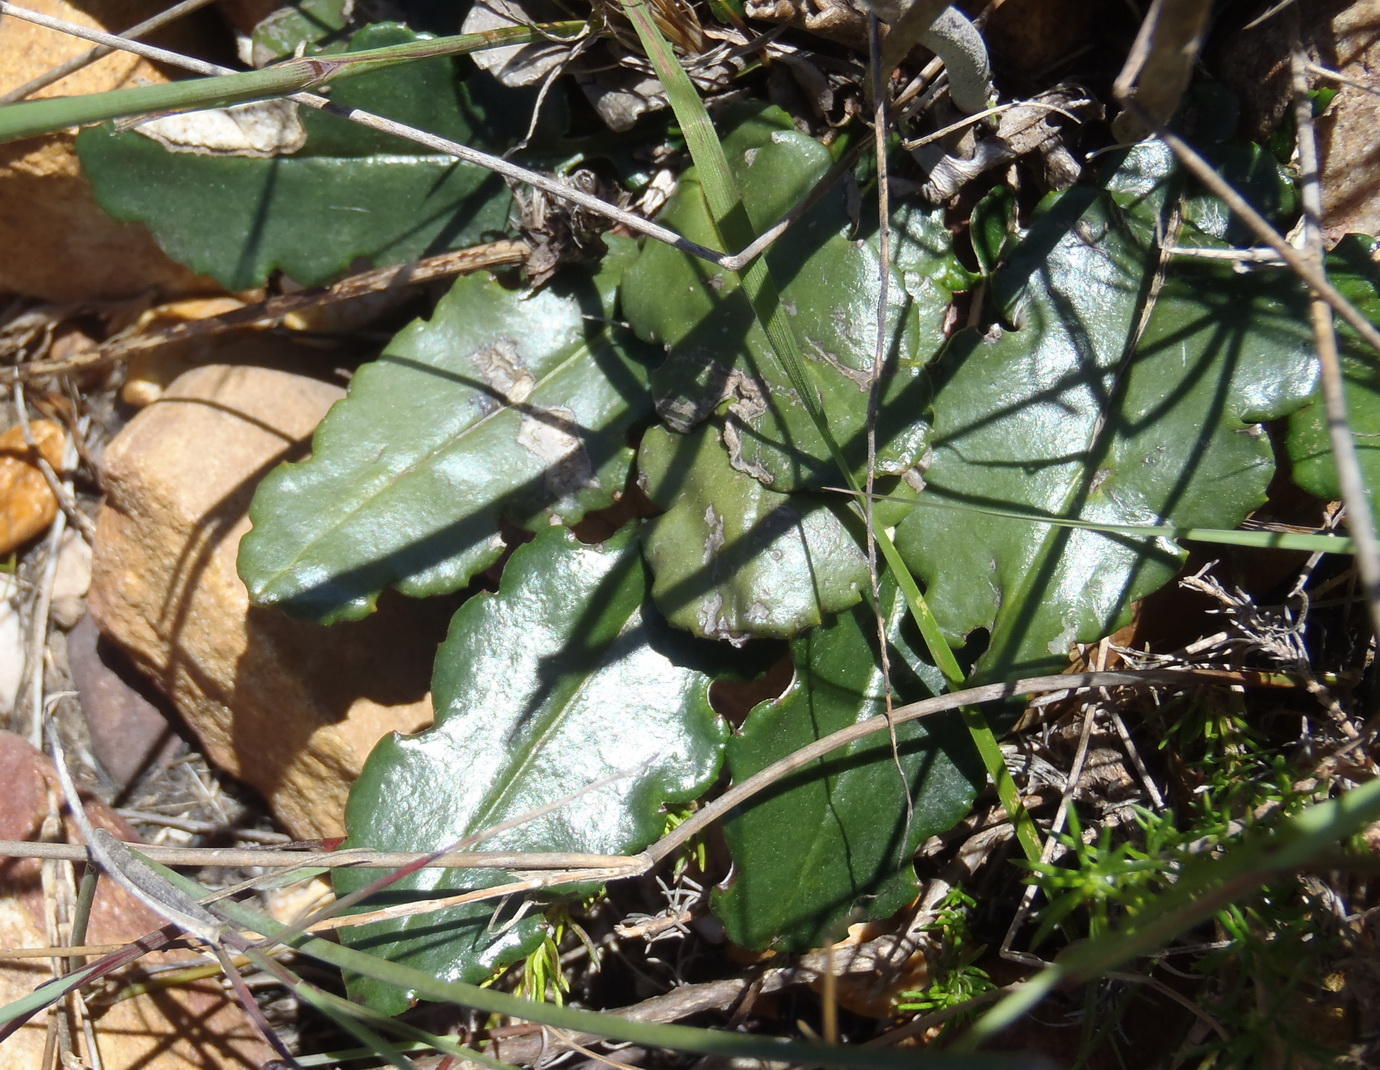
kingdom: Plantae
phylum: Tracheophyta
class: Magnoliopsida
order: Asterales
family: Asteraceae
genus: Gerbera
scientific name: Gerbera crocea
